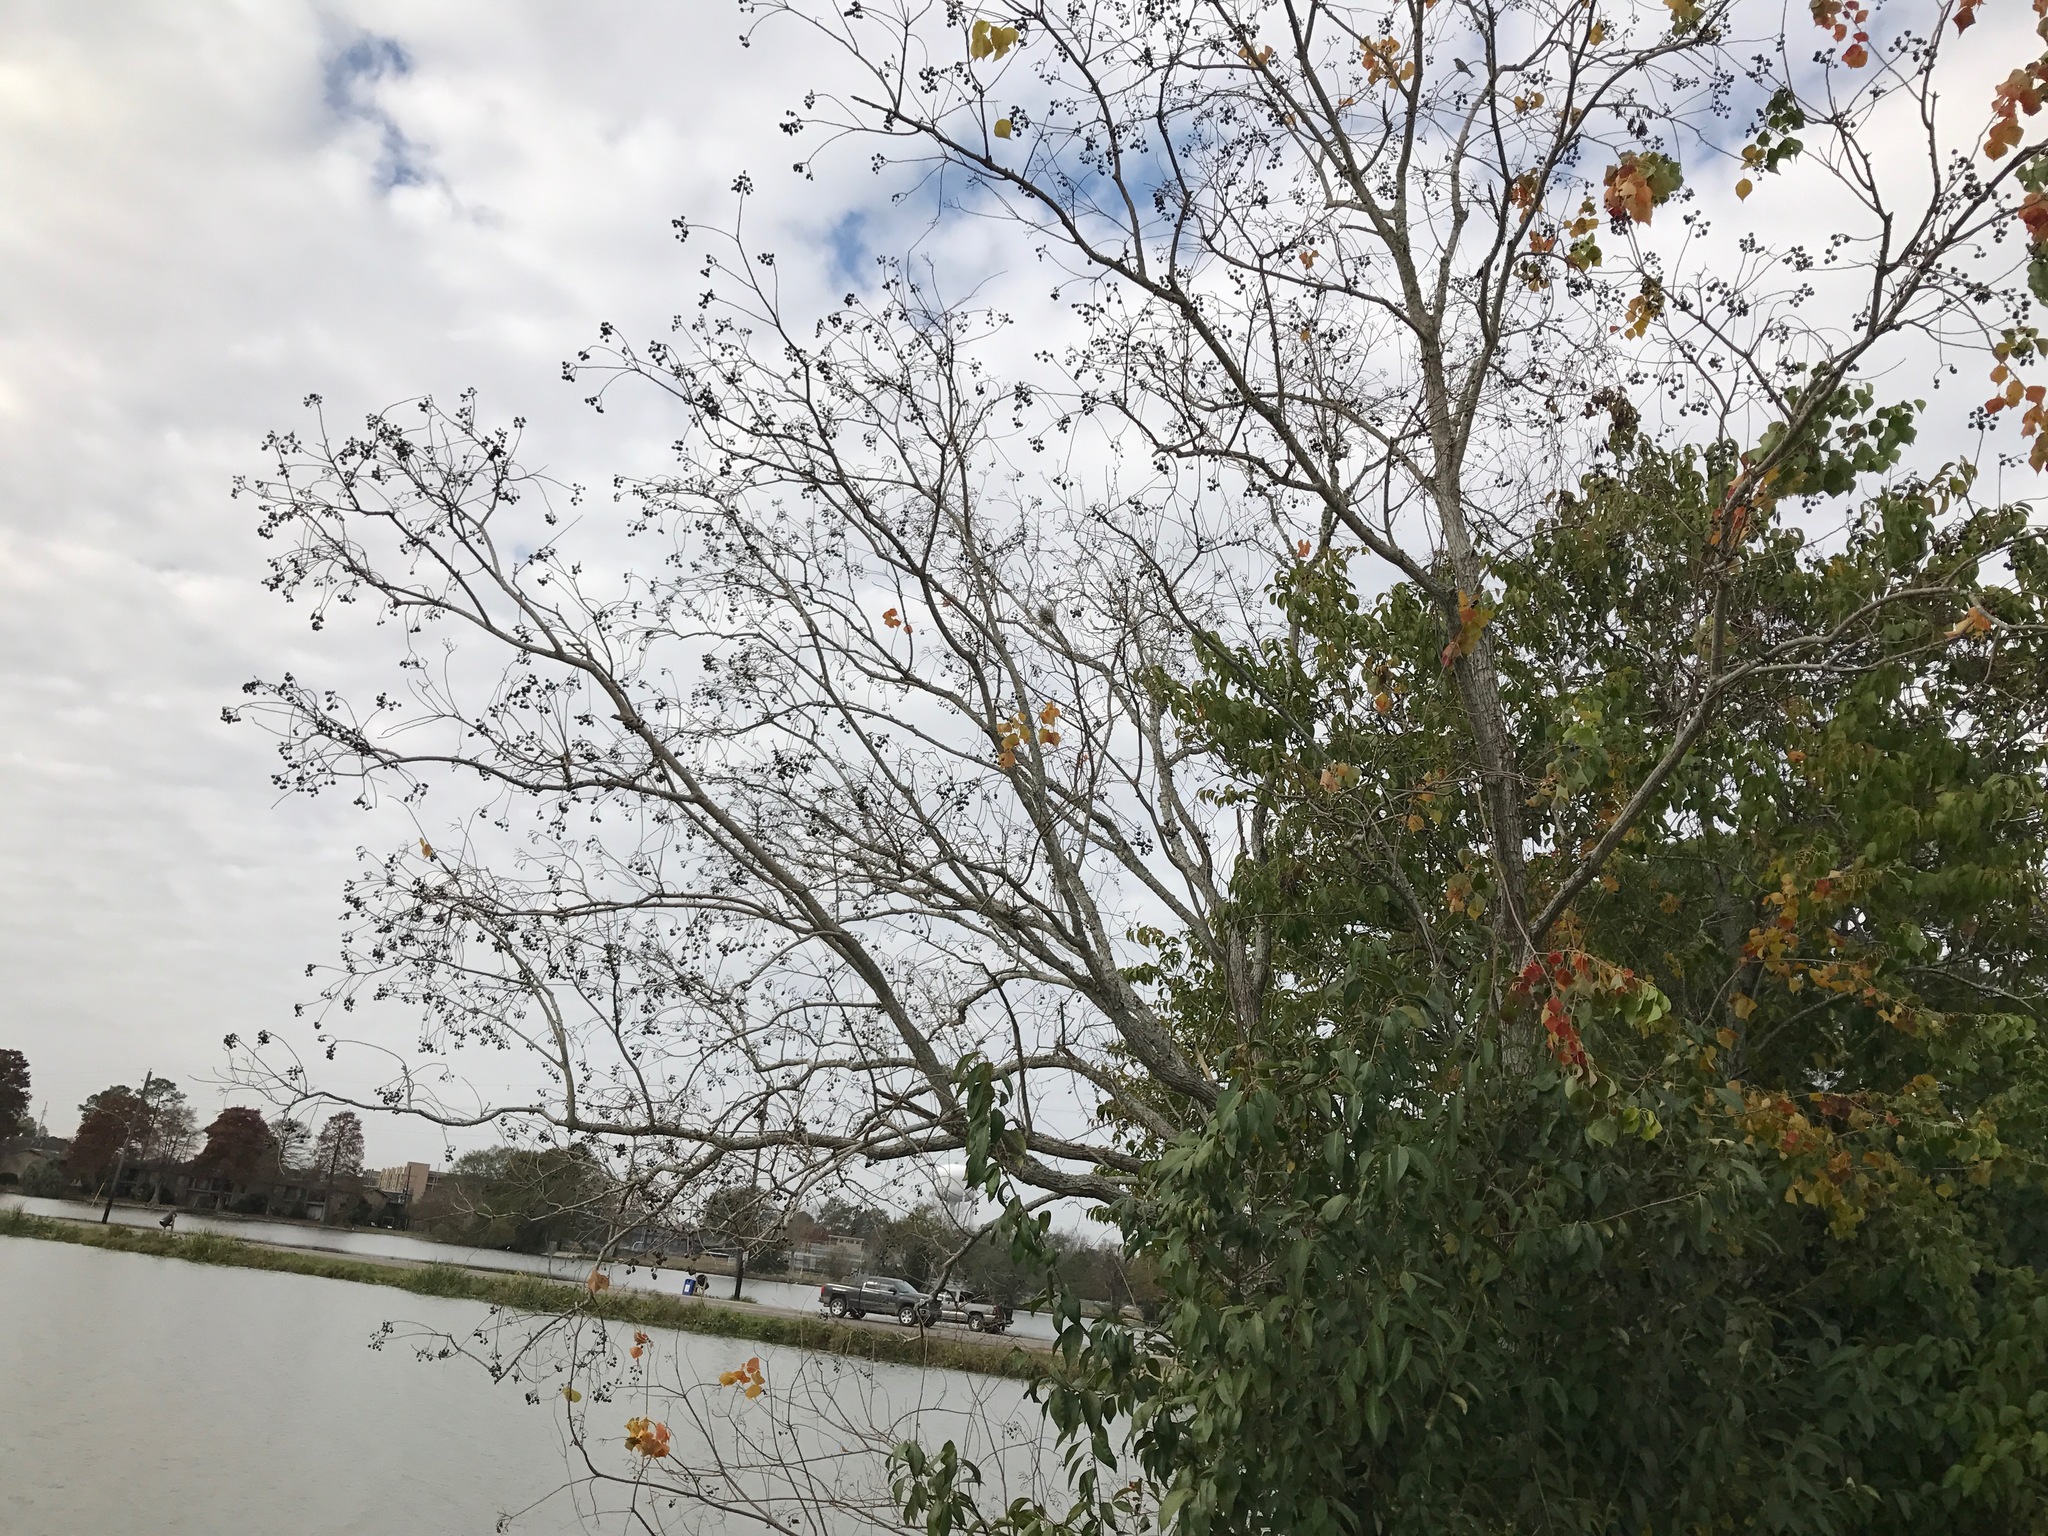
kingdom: Plantae
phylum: Tracheophyta
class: Magnoliopsida
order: Malpighiales
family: Euphorbiaceae
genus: Triadica
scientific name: Triadica sebifera
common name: Chinese tallow
